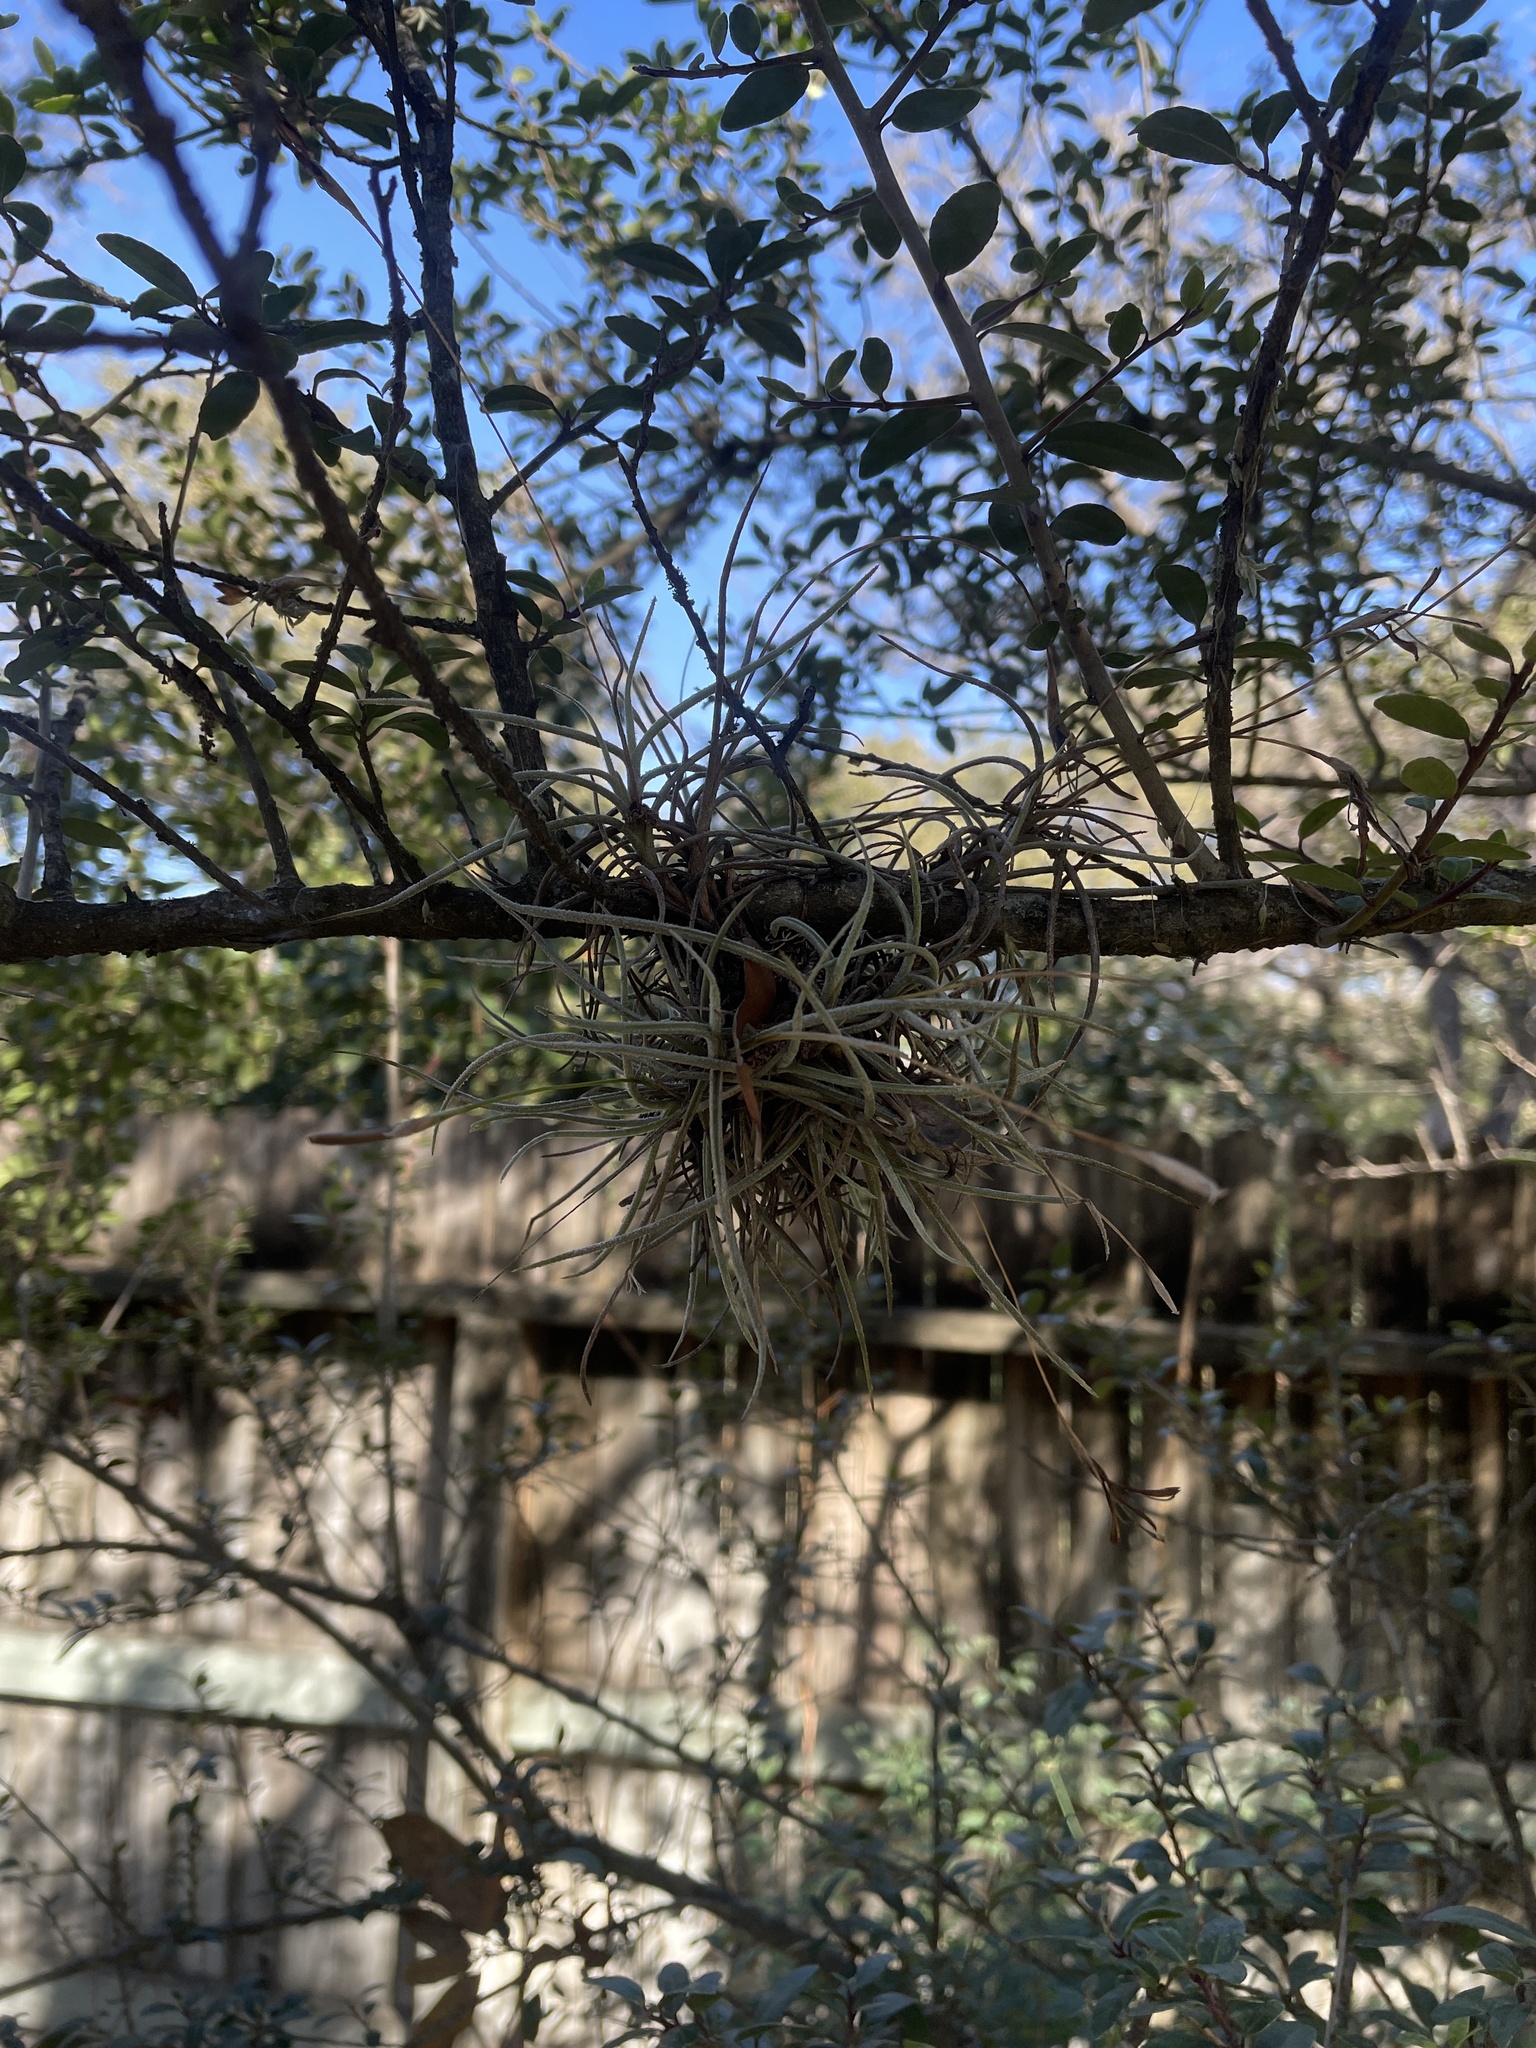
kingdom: Plantae
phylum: Tracheophyta
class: Liliopsida
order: Poales
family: Bromeliaceae
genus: Tillandsia
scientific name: Tillandsia recurvata
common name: Small ballmoss
